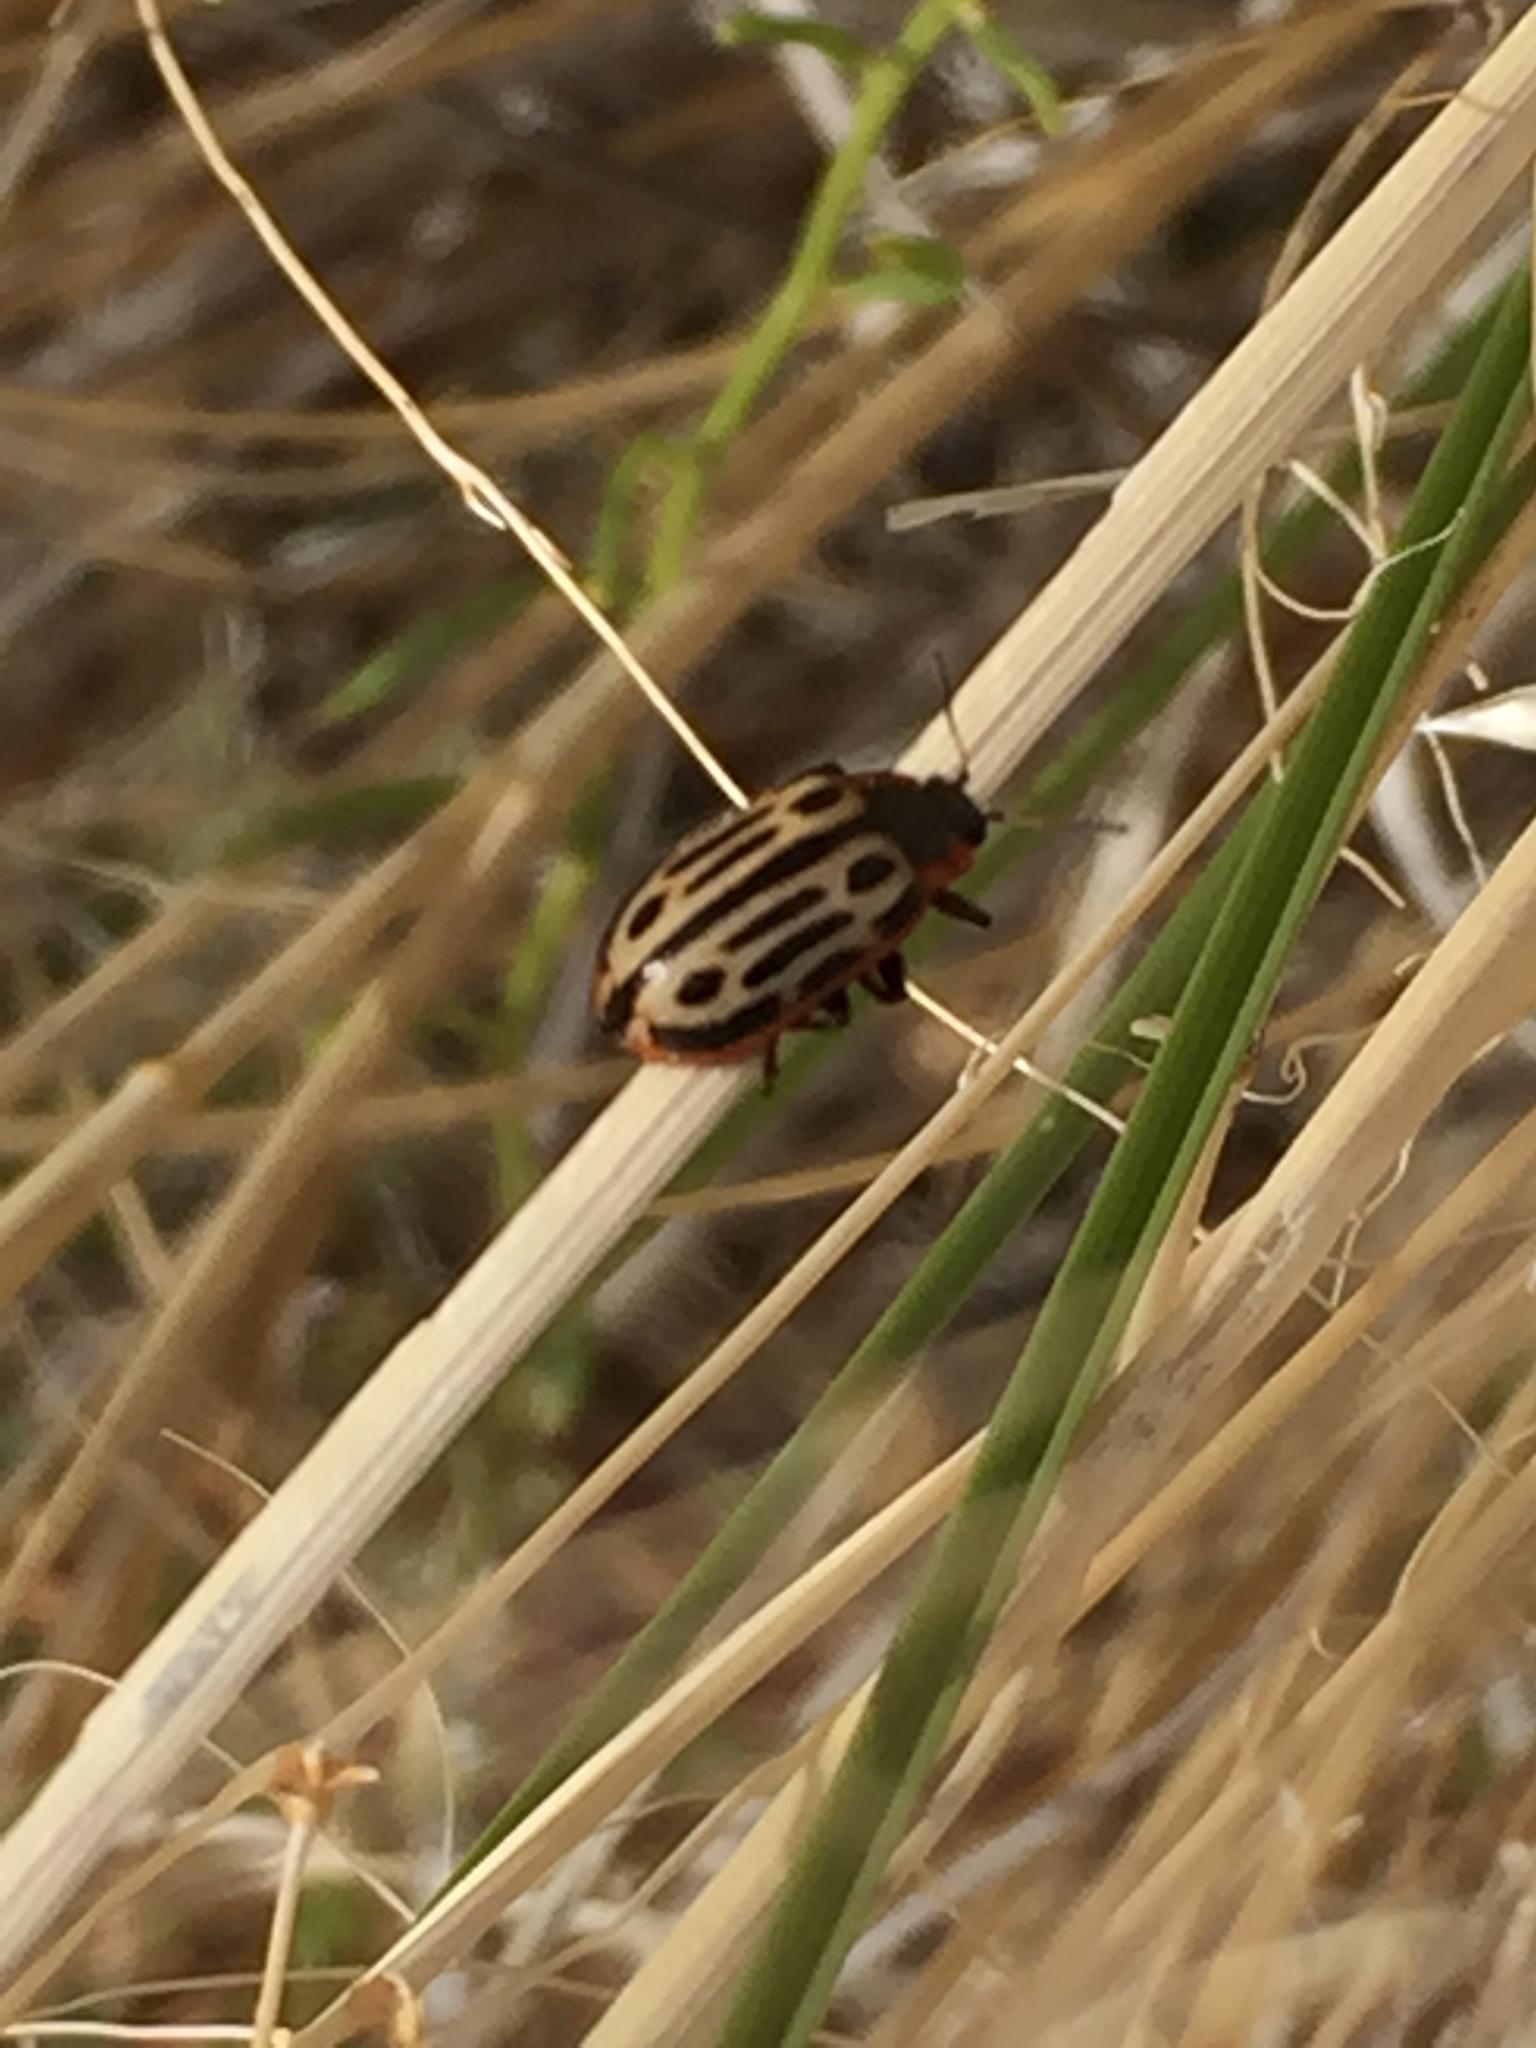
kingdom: Animalia
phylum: Arthropoda
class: Insecta
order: Coleoptera
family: Chrysomelidae
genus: Aethiopocassis
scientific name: Aethiopocassis scripta
